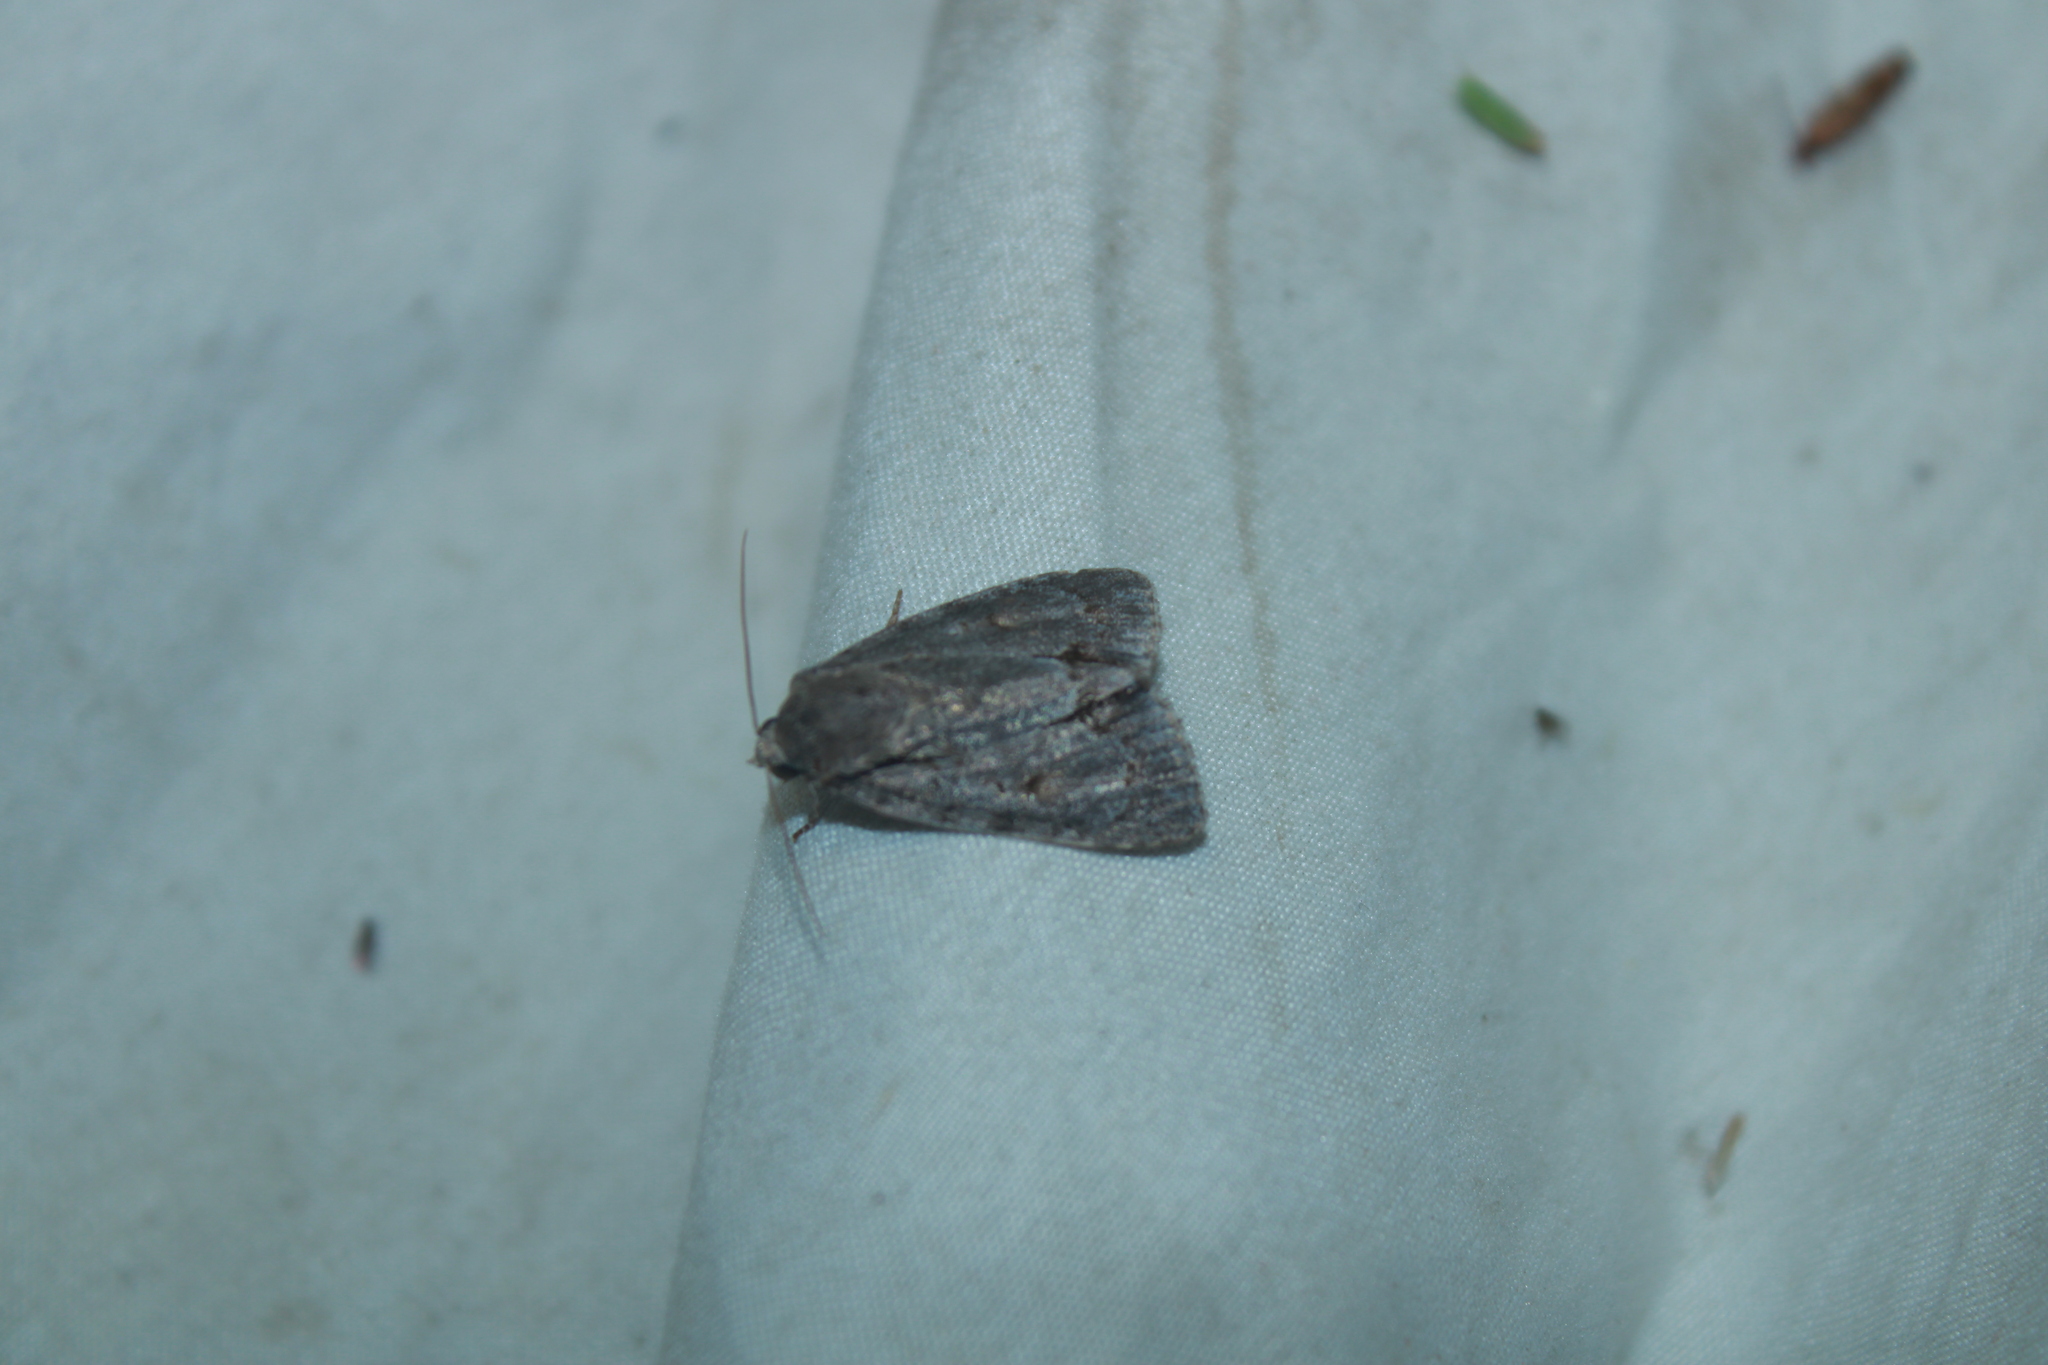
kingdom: Animalia
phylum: Arthropoda
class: Insecta
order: Lepidoptera
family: Noctuidae
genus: Acronicta
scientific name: Acronicta tritona
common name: Triton dagger
